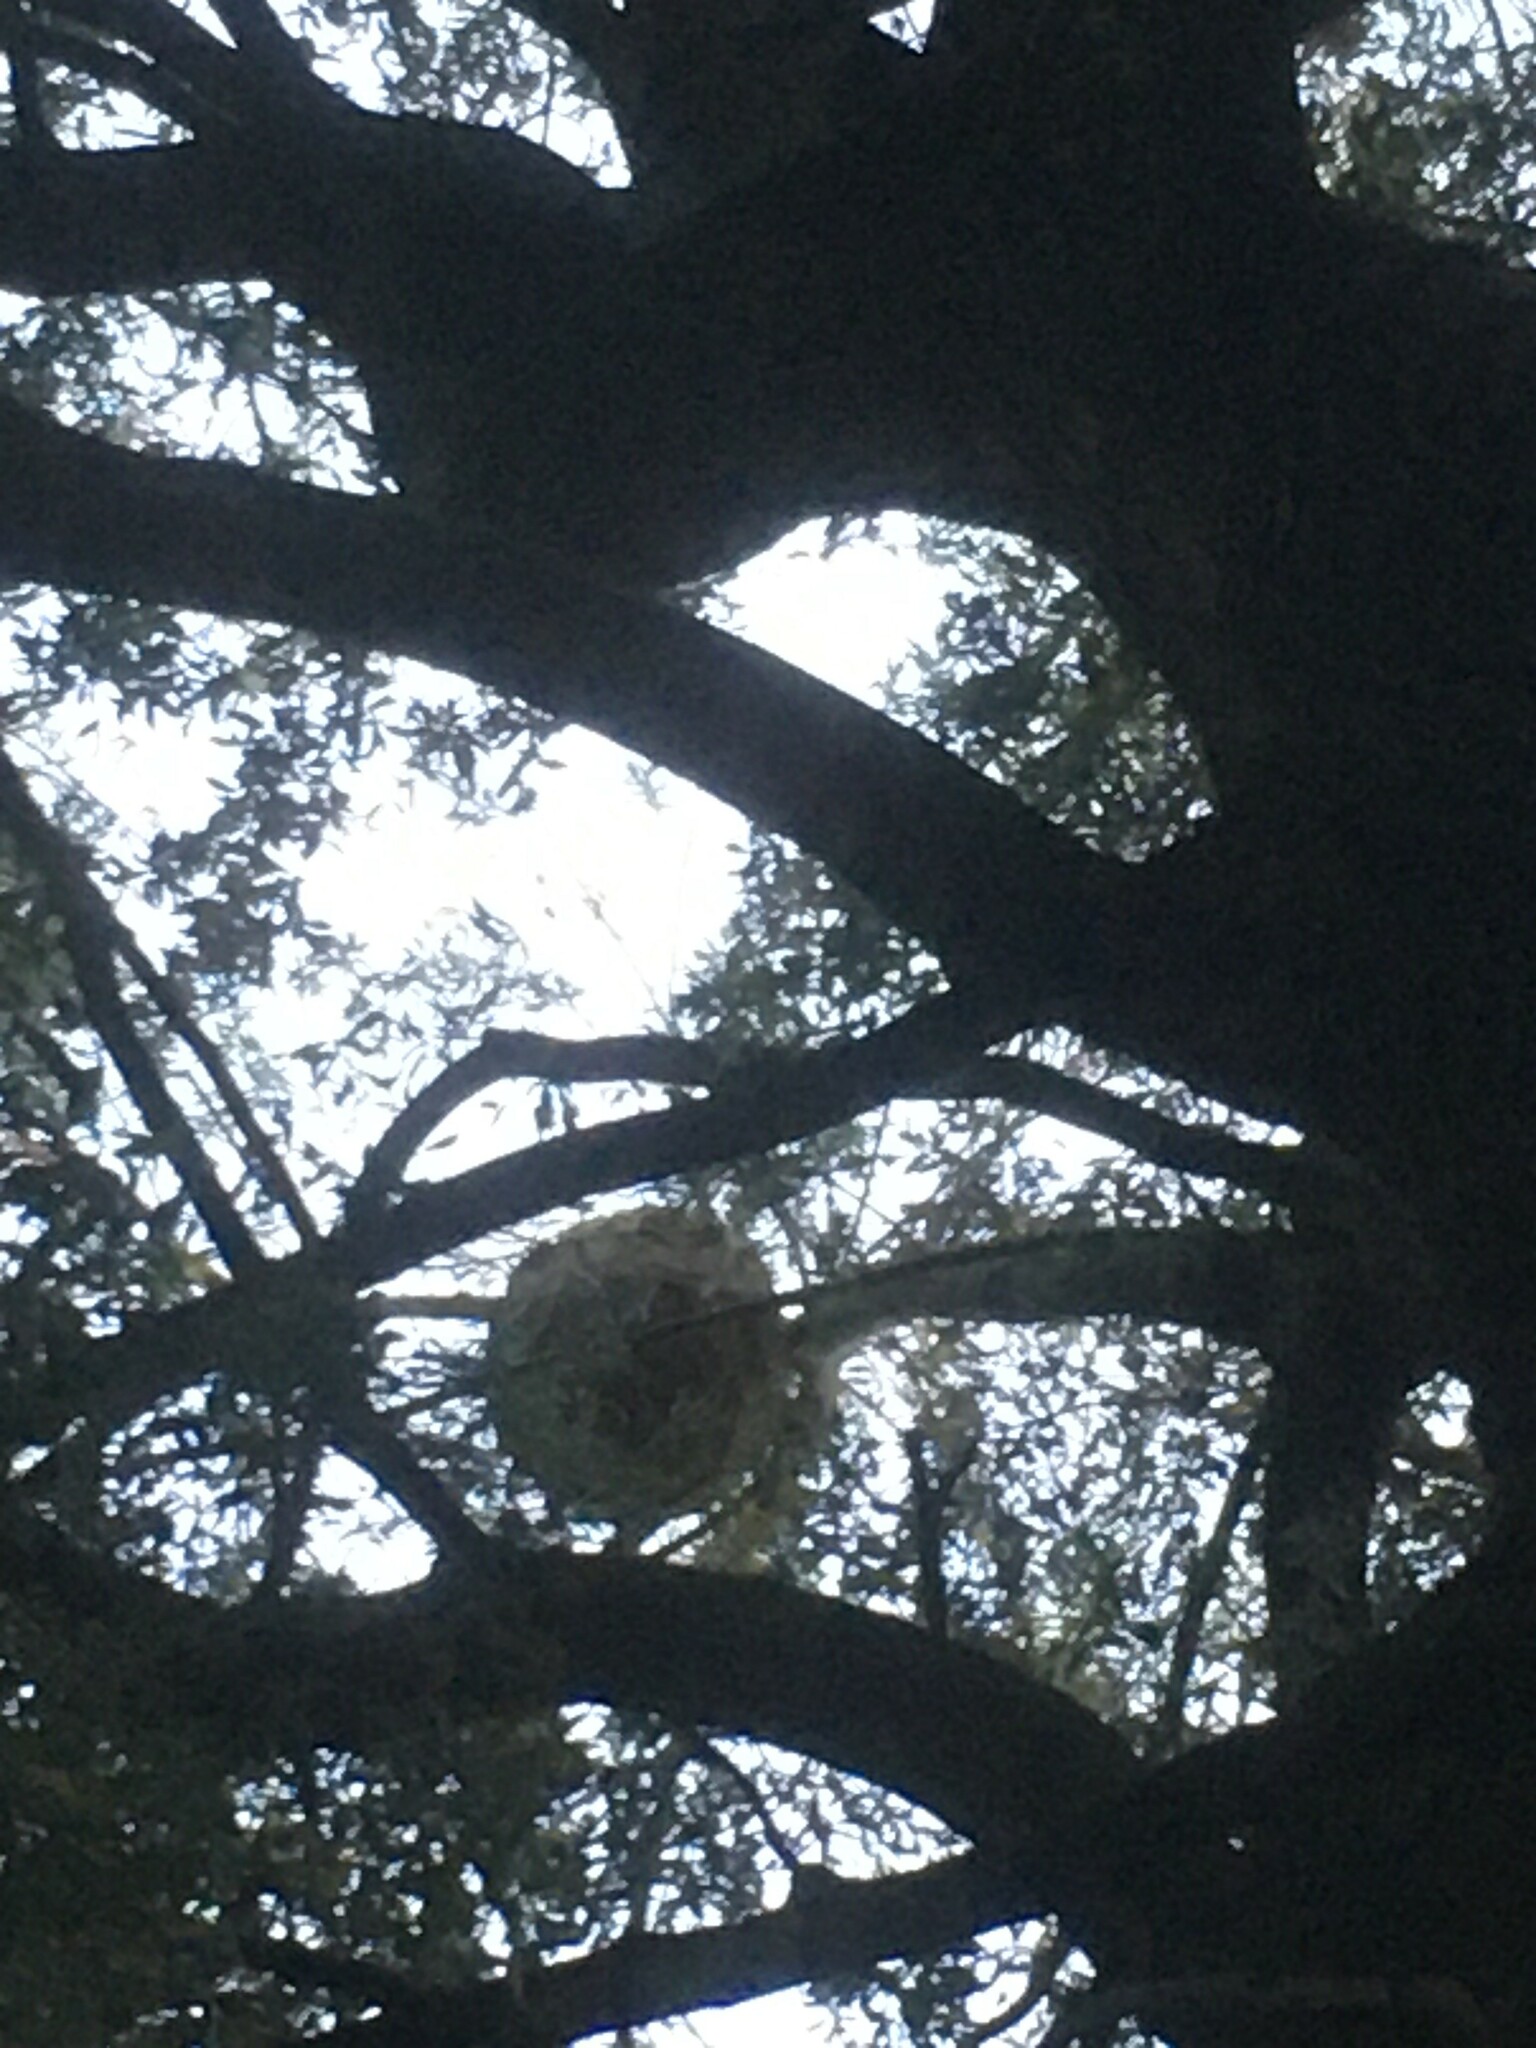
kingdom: Animalia
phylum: Arthropoda
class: Insecta
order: Hymenoptera
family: Vespidae
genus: Vespa
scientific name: Vespa velutina
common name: Asian hornet
